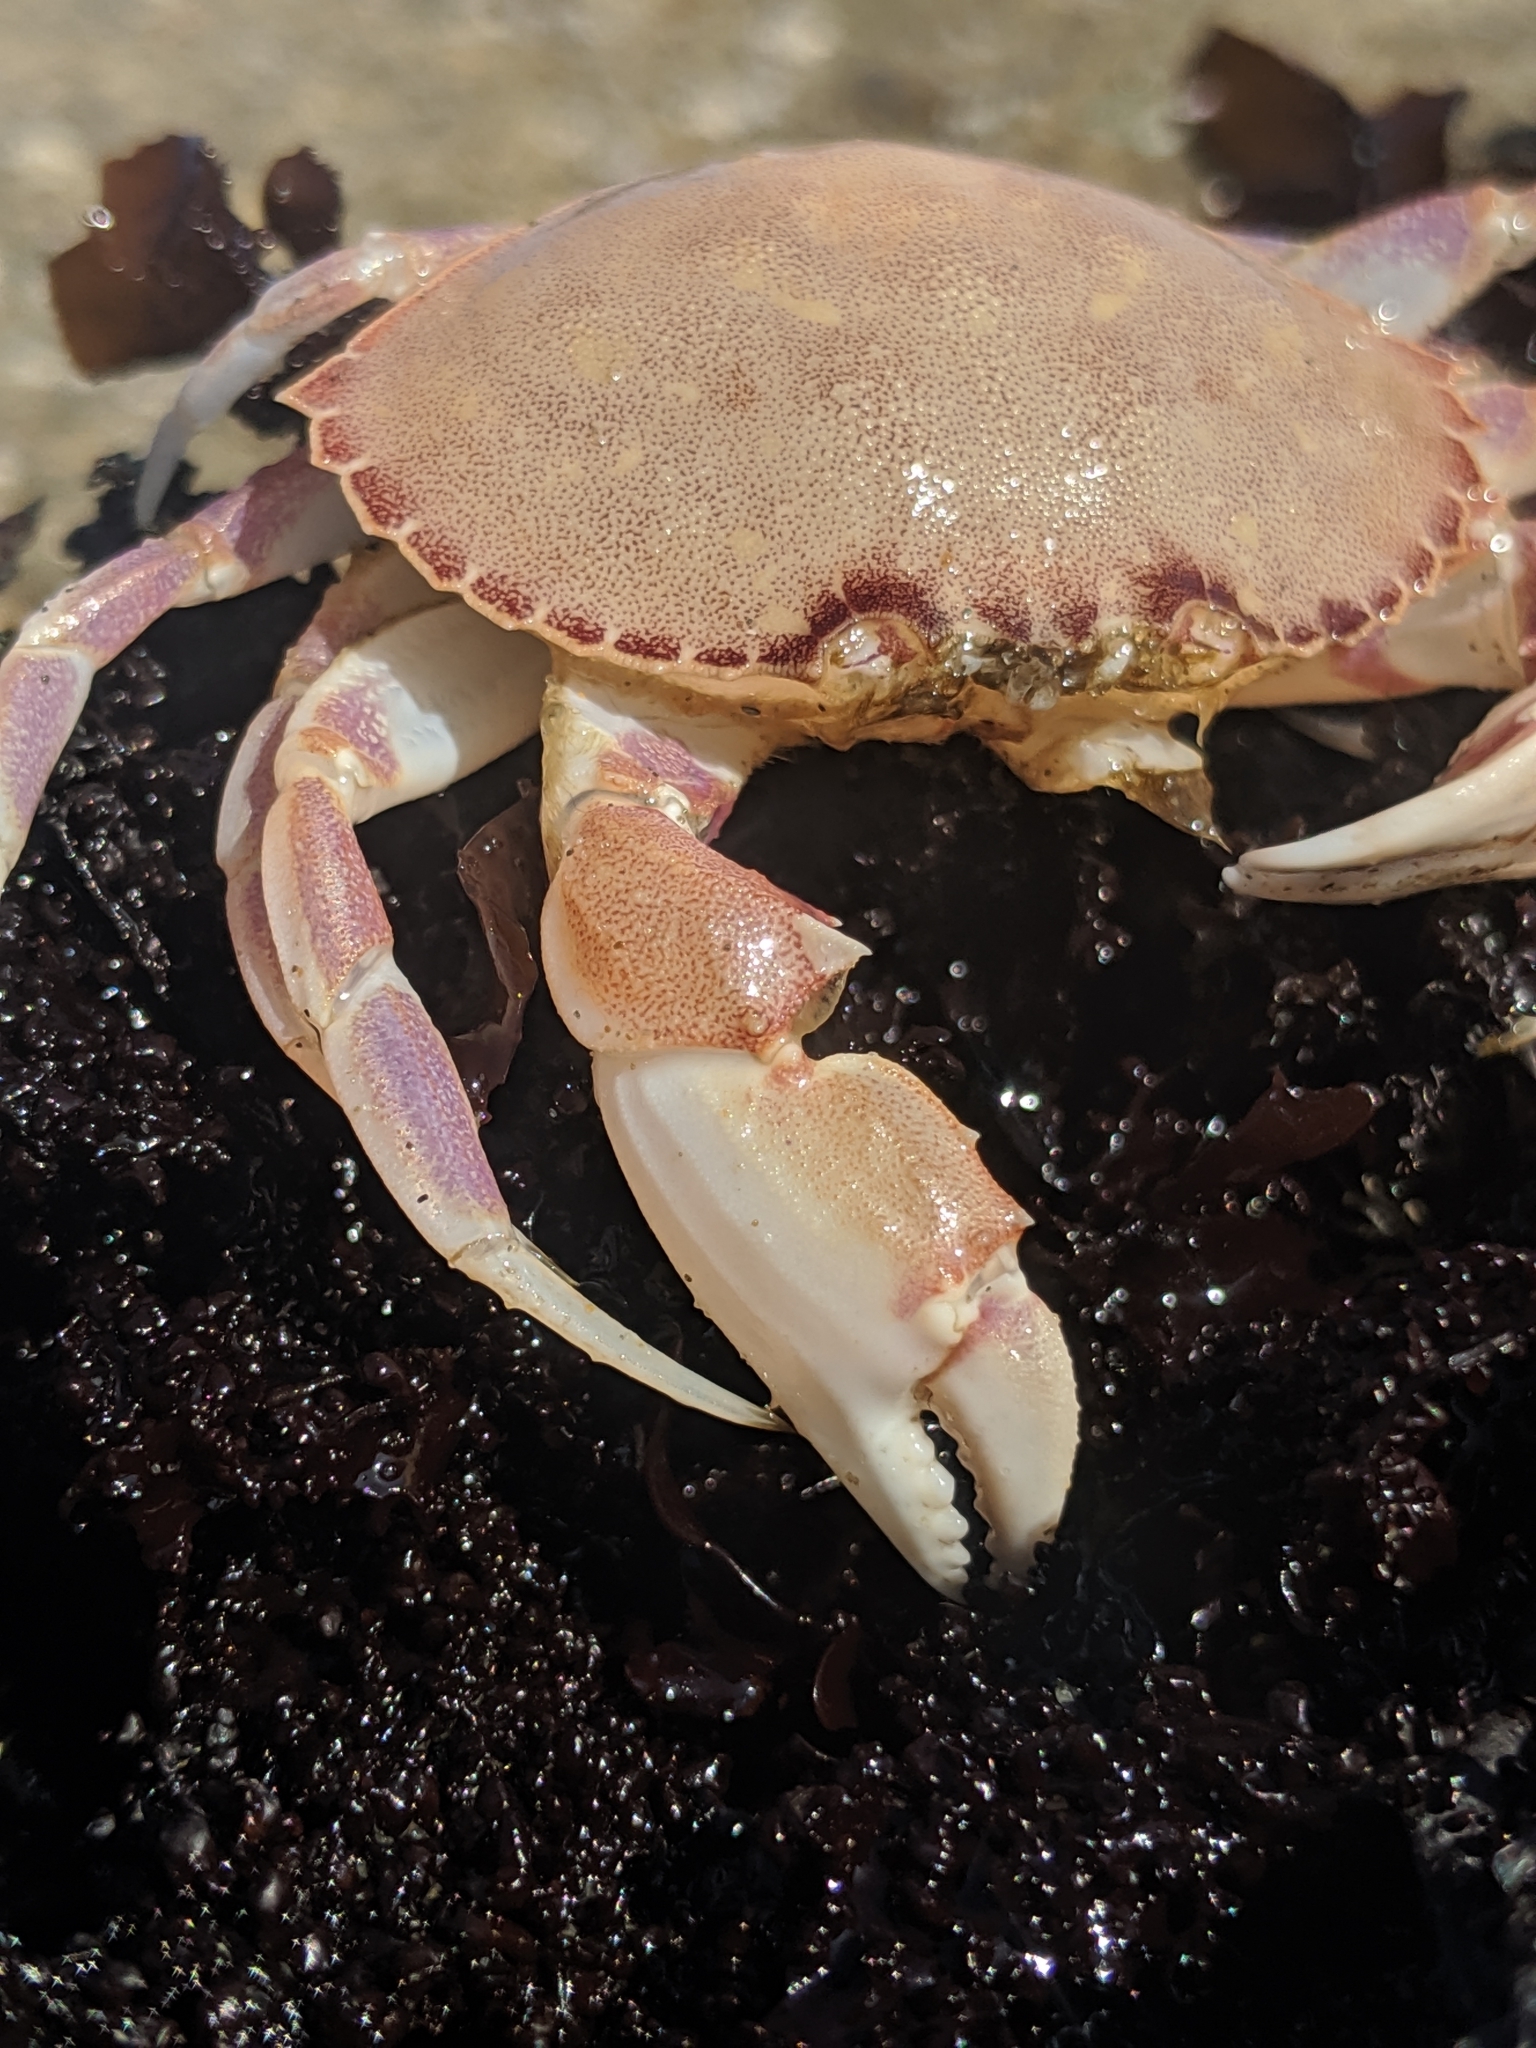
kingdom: Animalia
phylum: Arthropoda
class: Malacostraca
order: Decapoda
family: Cancridae
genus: Metacarcinus
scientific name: Metacarcinus gracilis
